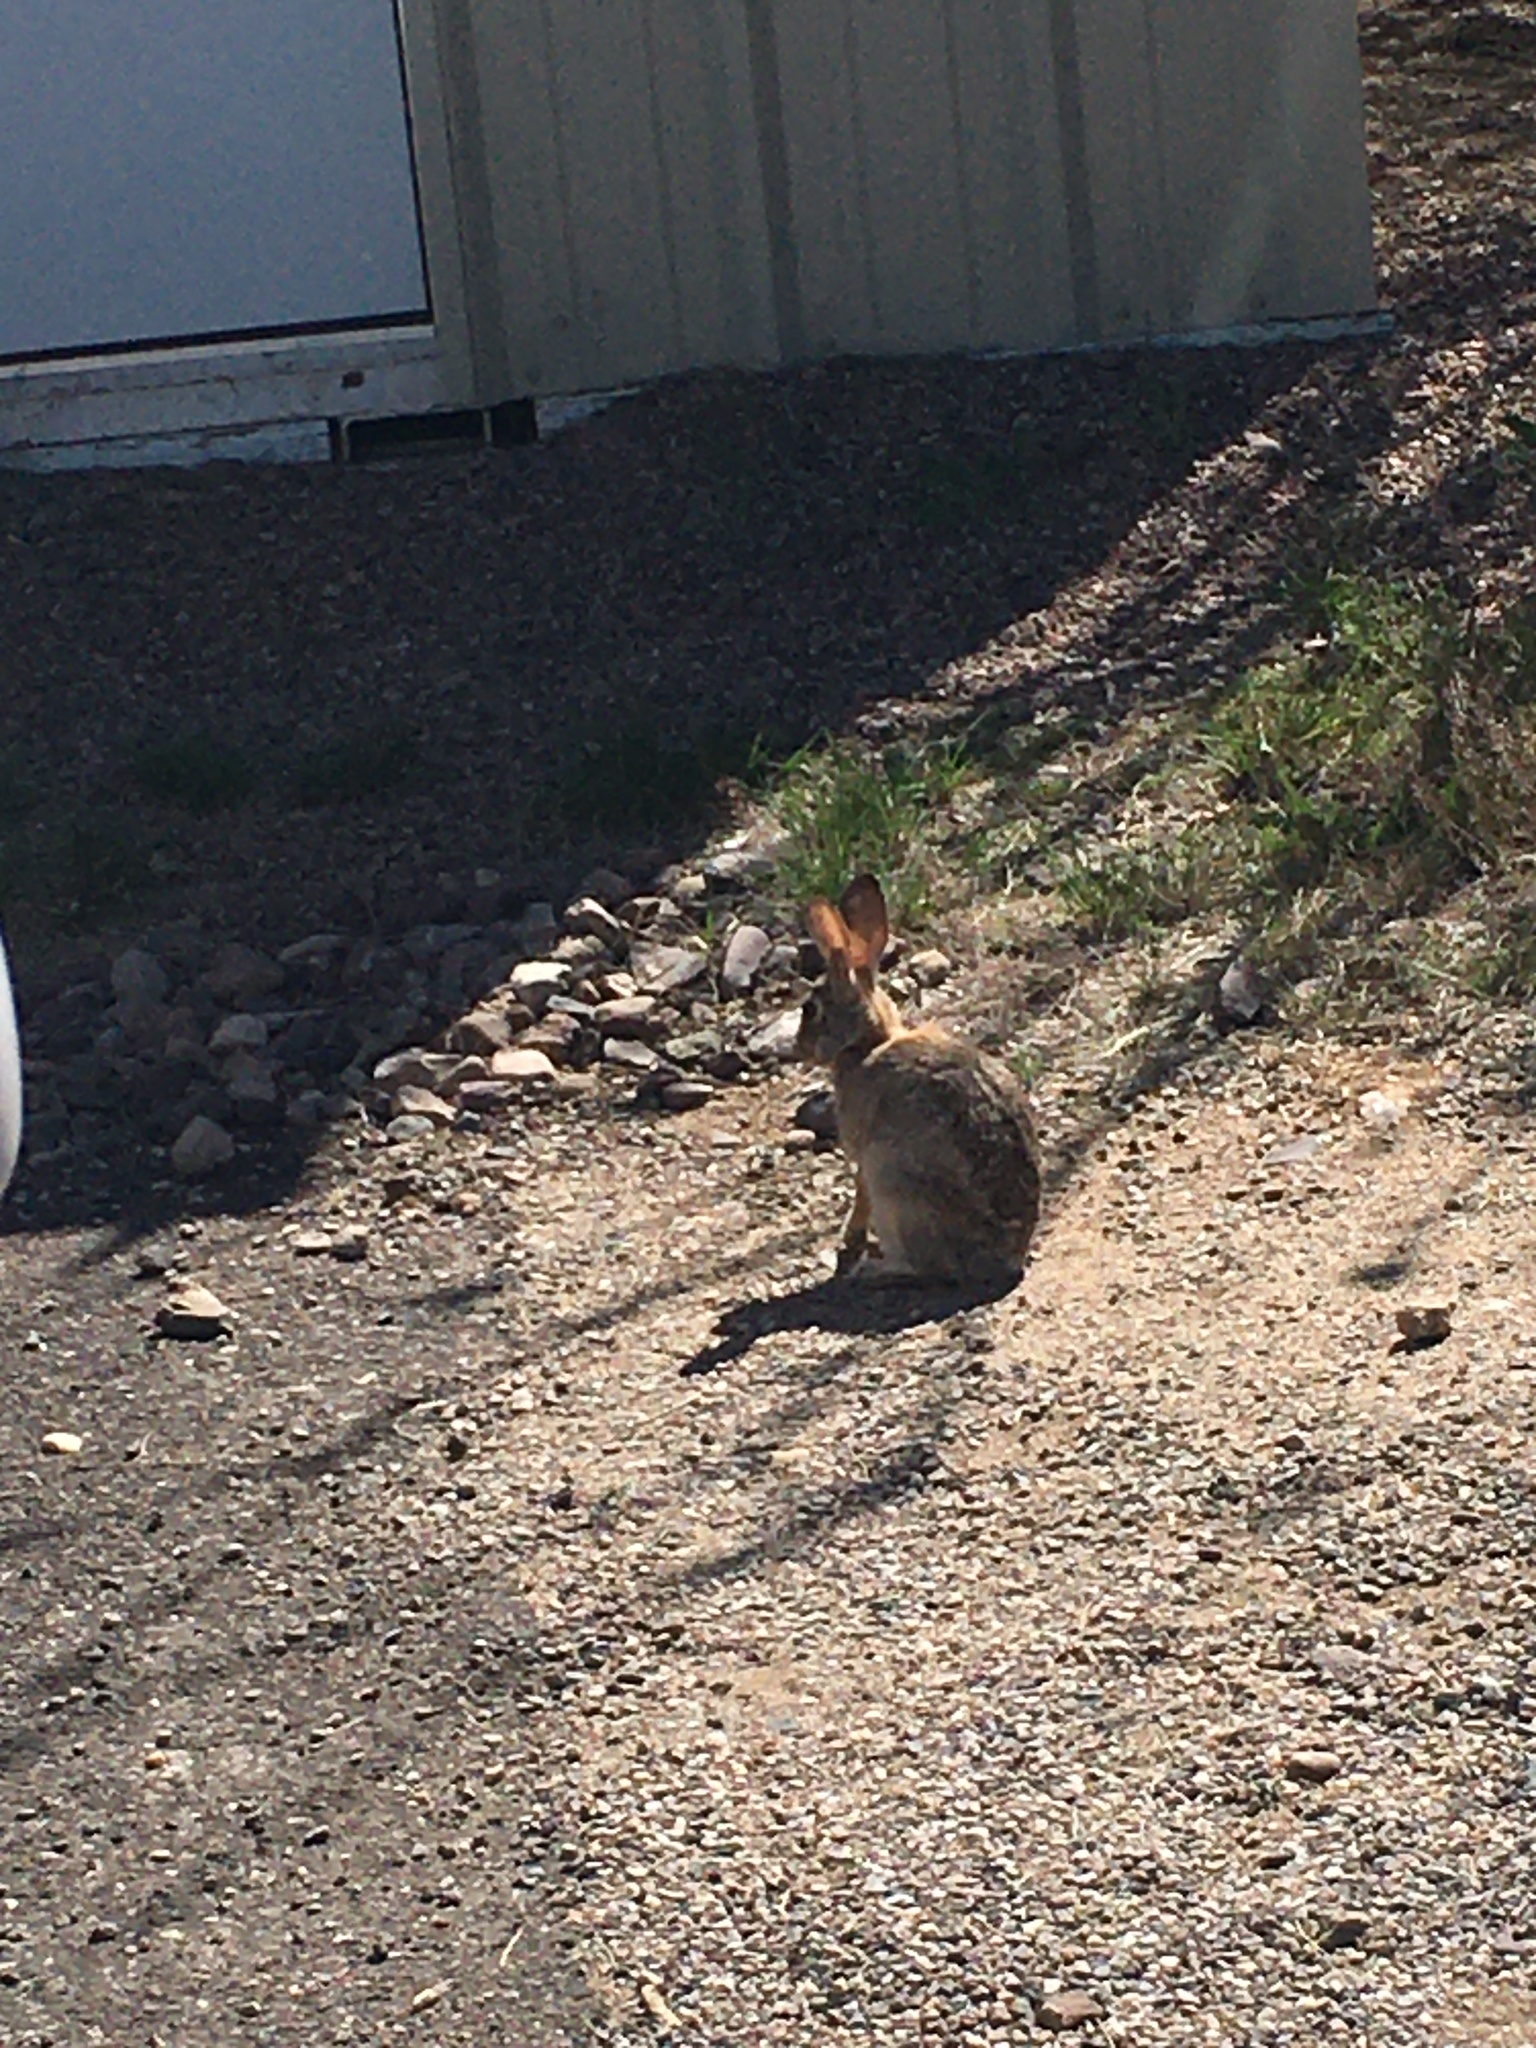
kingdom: Animalia
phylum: Chordata
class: Mammalia
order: Lagomorpha
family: Leporidae
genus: Sylvilagus
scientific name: Sylvilagus audubonii
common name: Desert cottontail
